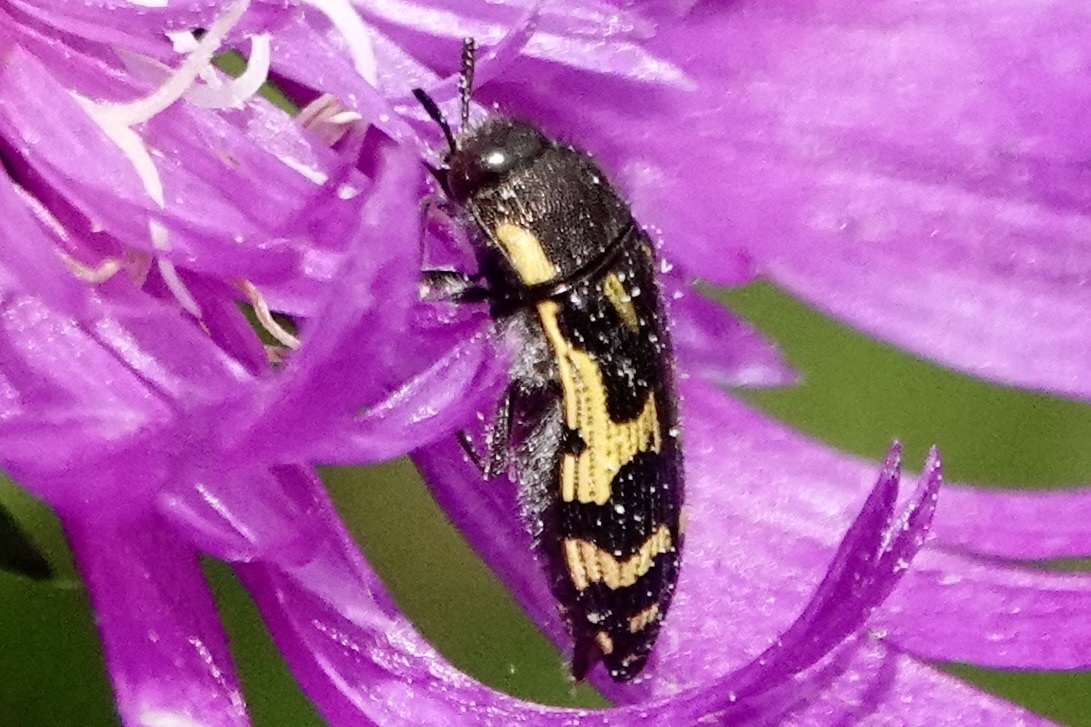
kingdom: Animalia
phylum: Arthropoda
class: Insecta
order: Coleoptera
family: Buprestidae
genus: Acmaeodera
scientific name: Acmaeodera pulchella
